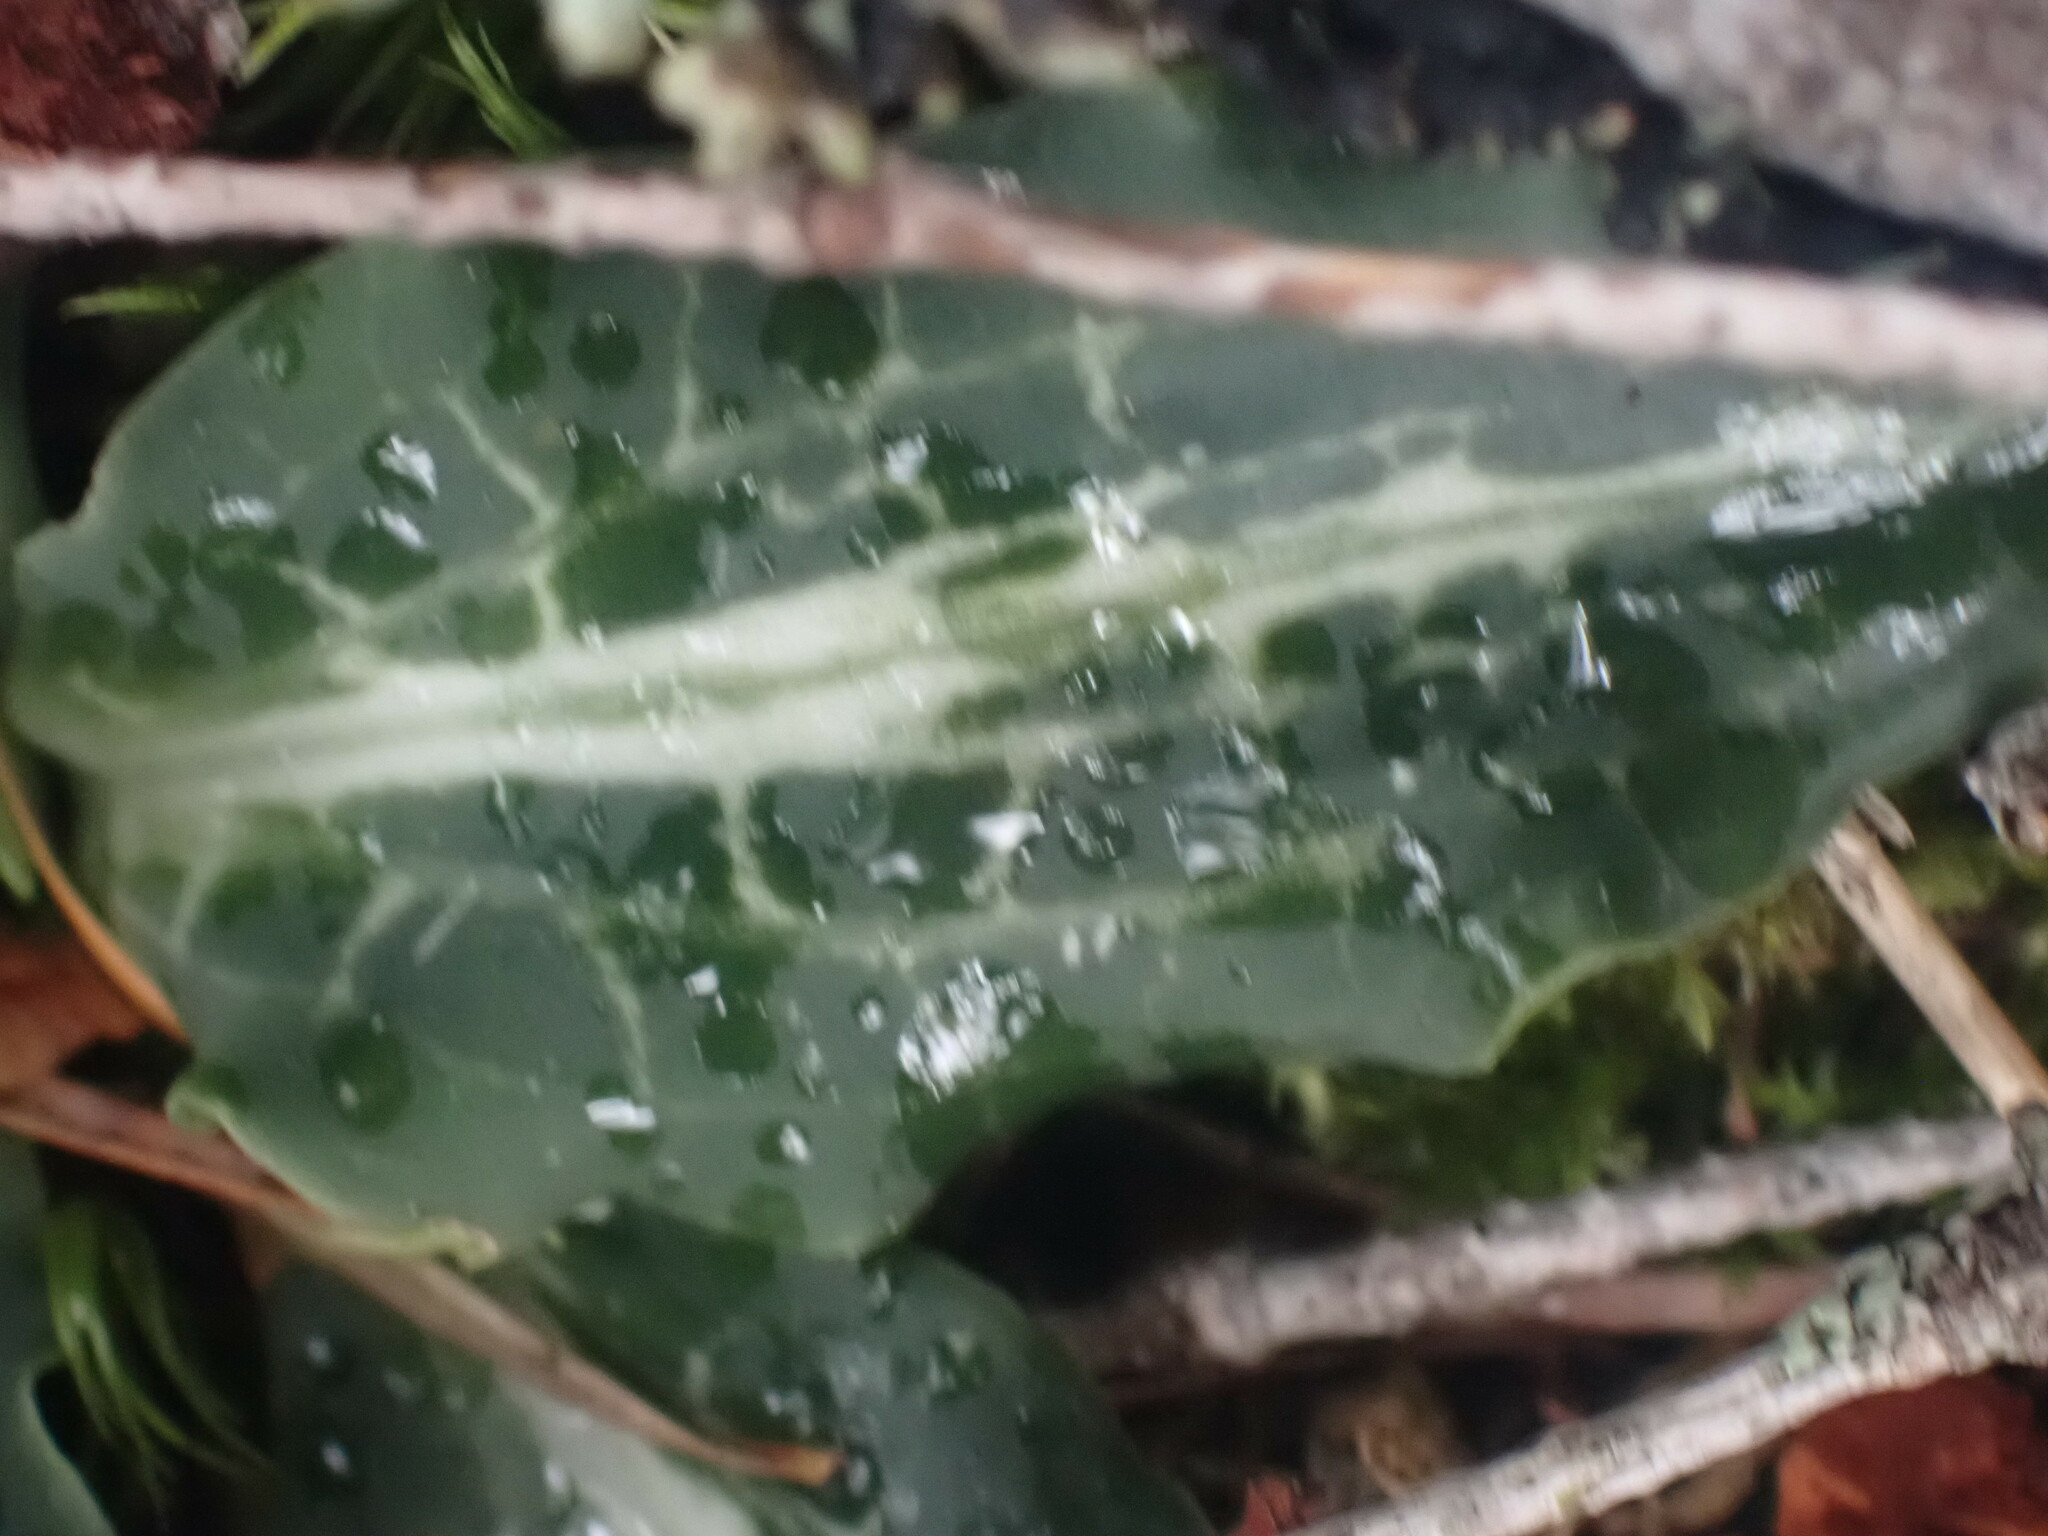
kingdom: Plantae
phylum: Tracheophyta
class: Liliopsida
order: Asparagales
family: Orchidaceae
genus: Goodyera
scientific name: Goodyera oblongifolia
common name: Giant rattlesnake-plantain
